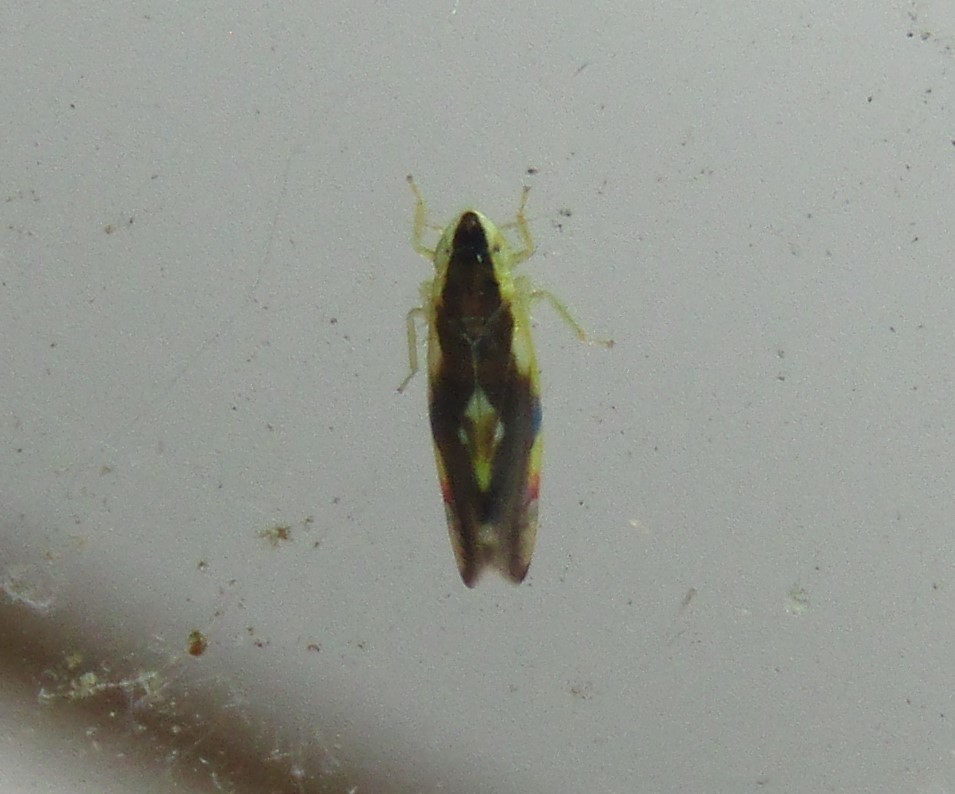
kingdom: Animalia
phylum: Arthropoda
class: Insecta
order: Hemiptera
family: Cicadellidae
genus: Erythroneura
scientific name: Erythroneura aclys
